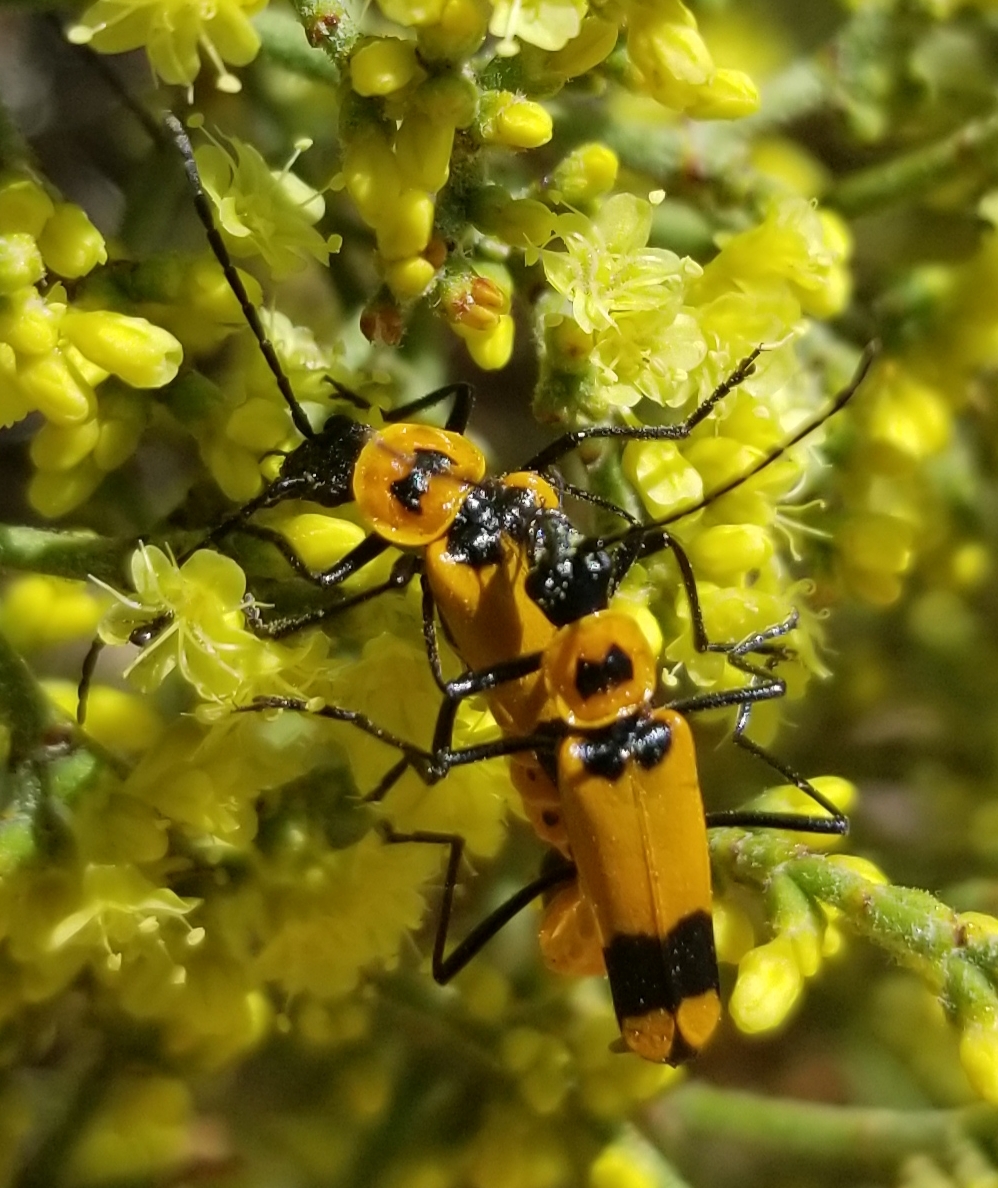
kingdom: Animalia
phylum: Arthropoda
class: Insecta
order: Coleoptera
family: Cantharidae
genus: Chauliognathus
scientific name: Chauliognathus fasciatus
